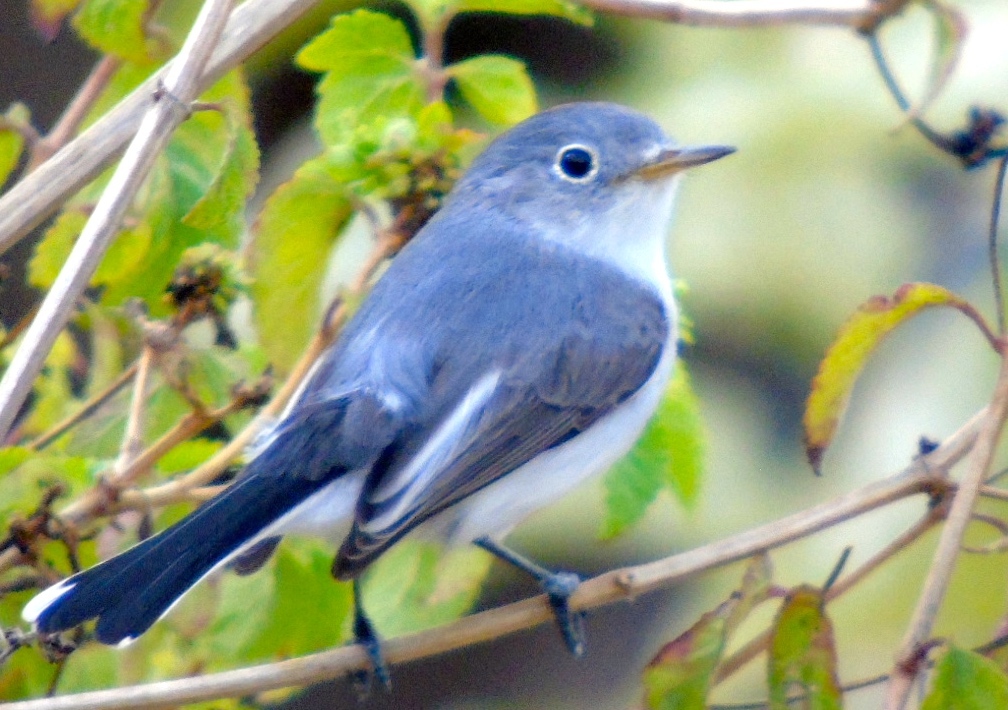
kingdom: Animalia
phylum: Chordata
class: Aves
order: Passeriformes
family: Polioptilidae
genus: Polioptila
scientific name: Polioptila caerulea
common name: Blue-gray gnatcatcher
